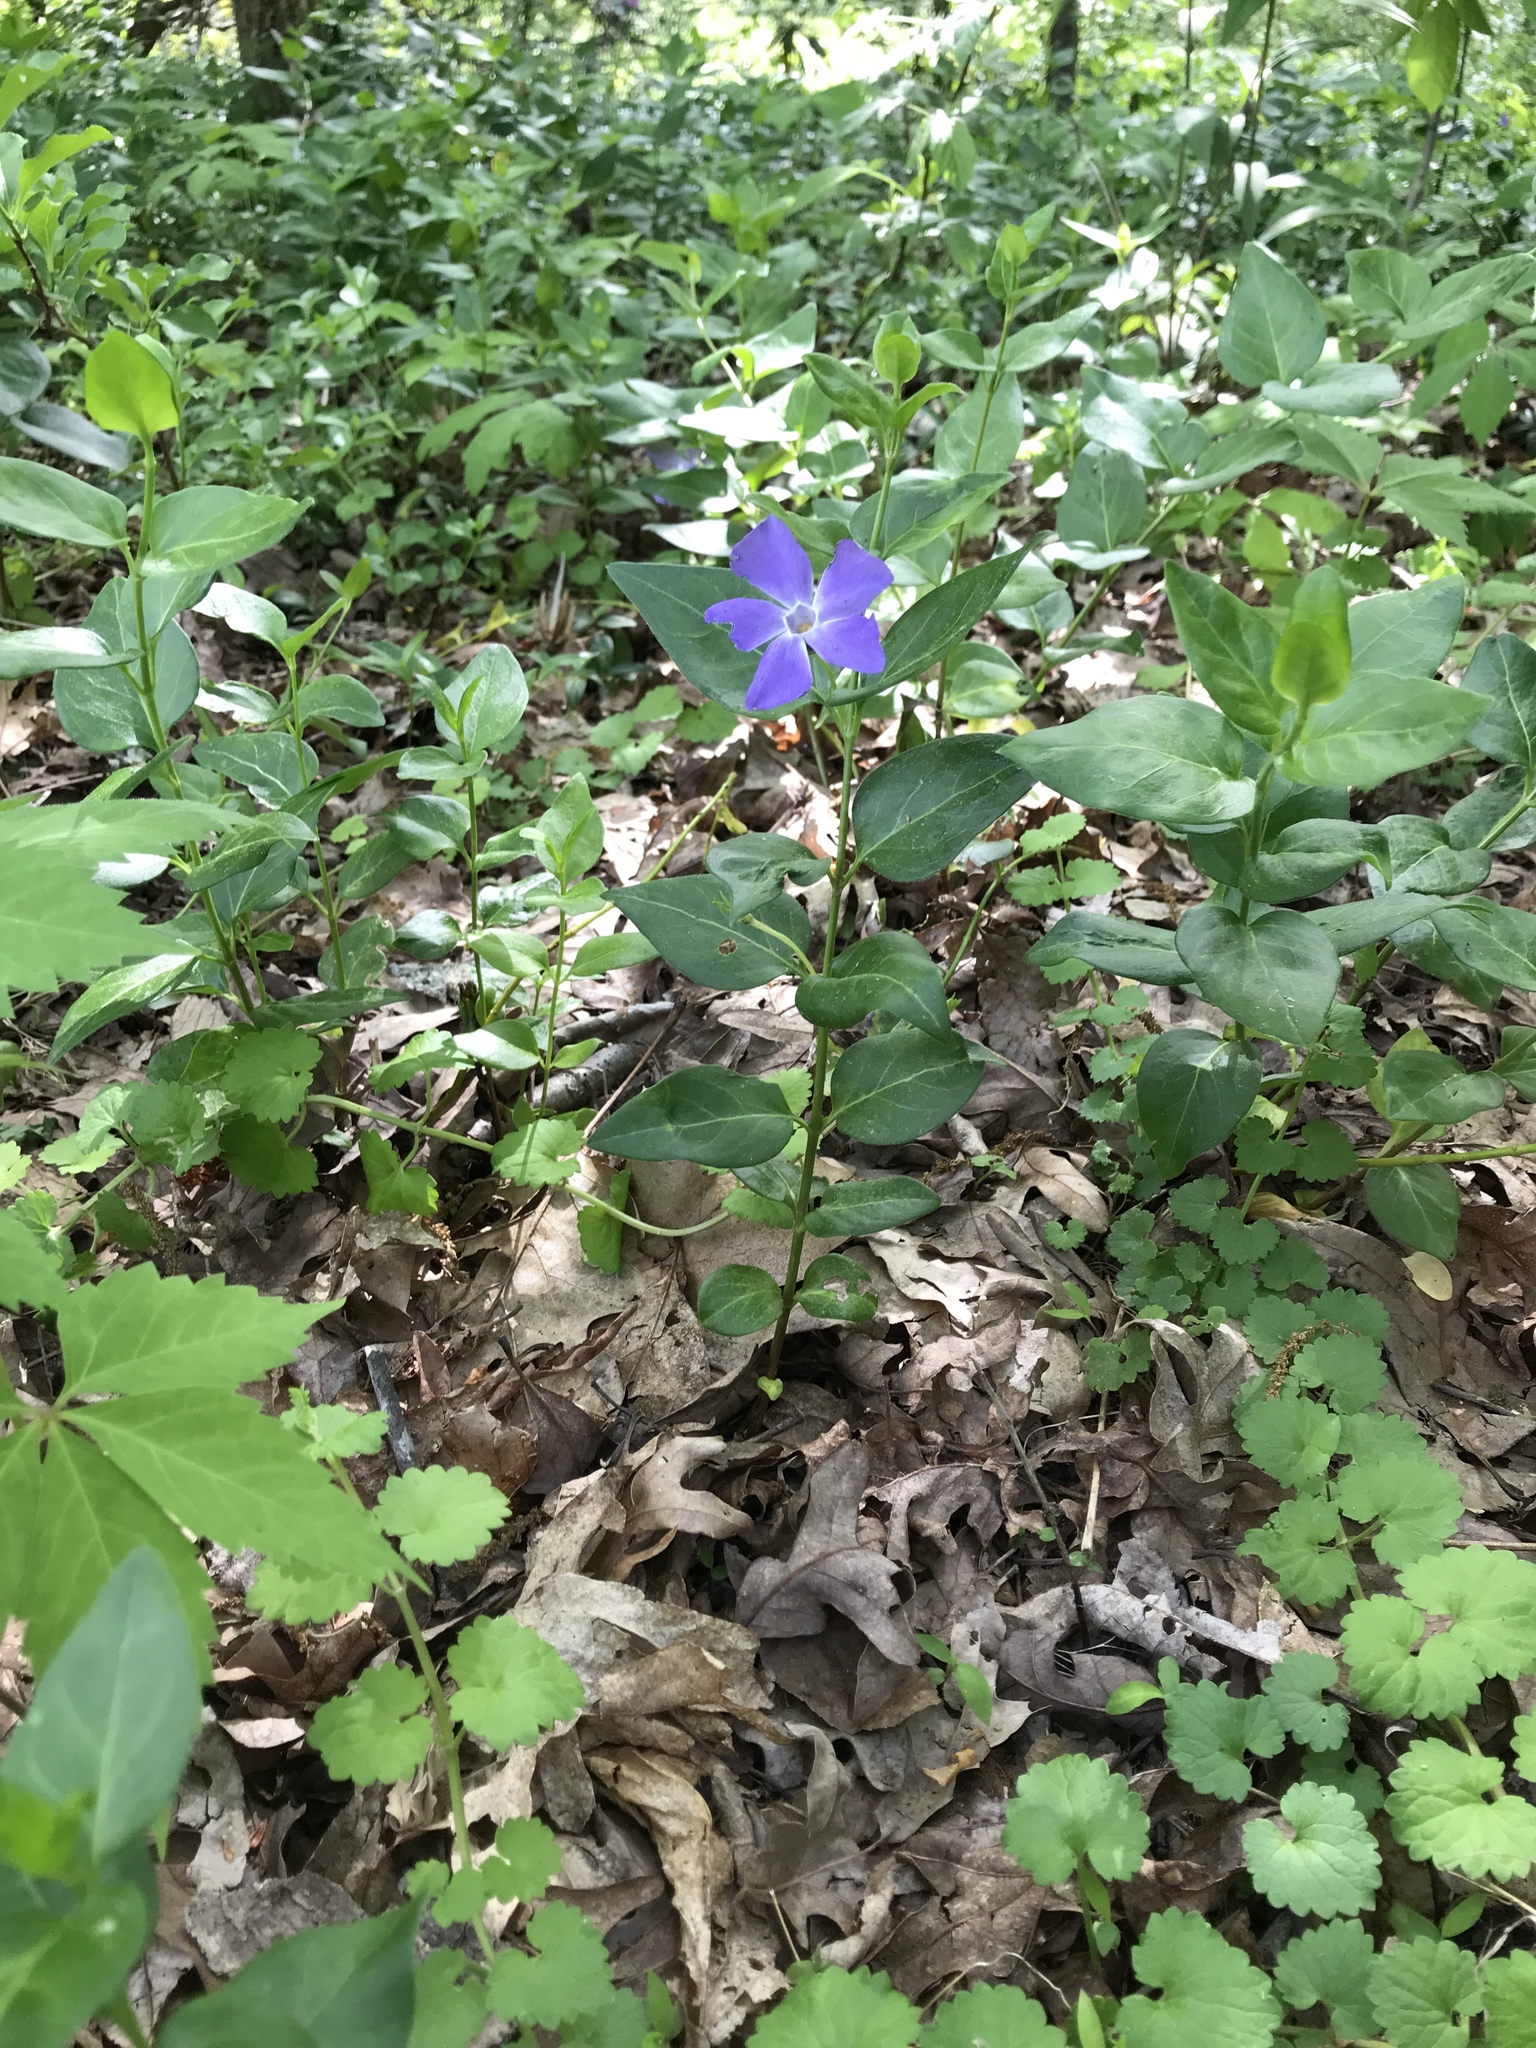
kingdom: Plantae
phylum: Tracheophyta
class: Magnoliopsida
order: Gentianales
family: Apocynaceae
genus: Vinca
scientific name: Vinca major
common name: Greater periwinkle
